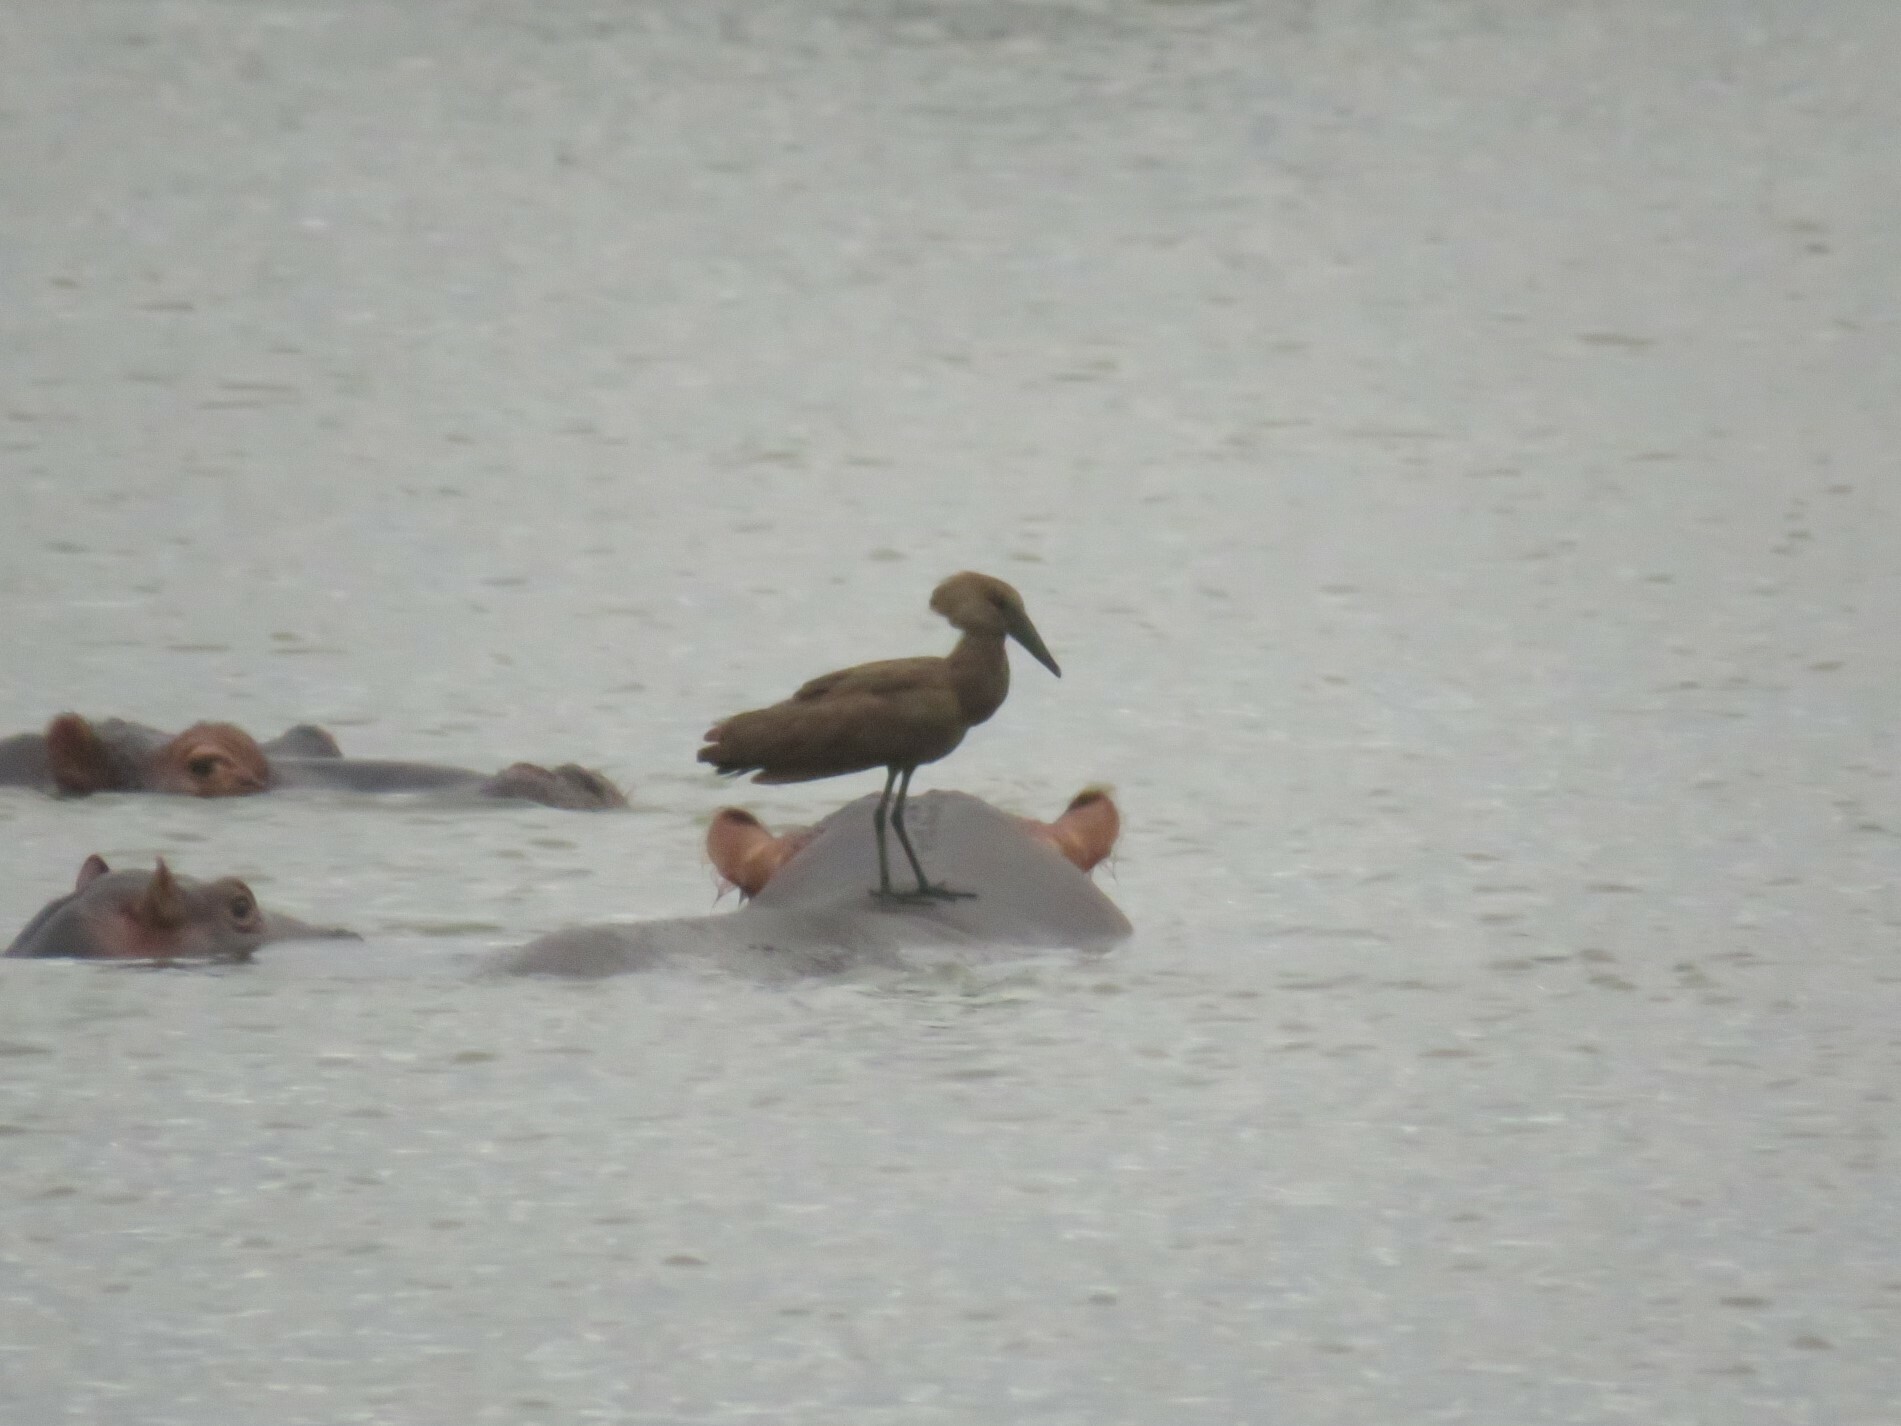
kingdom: Animalia
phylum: Chordata
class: Aves
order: Pelecaniformes
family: Scopidae
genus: Scopus
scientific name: Scopus umbretta
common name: Hamerkop
